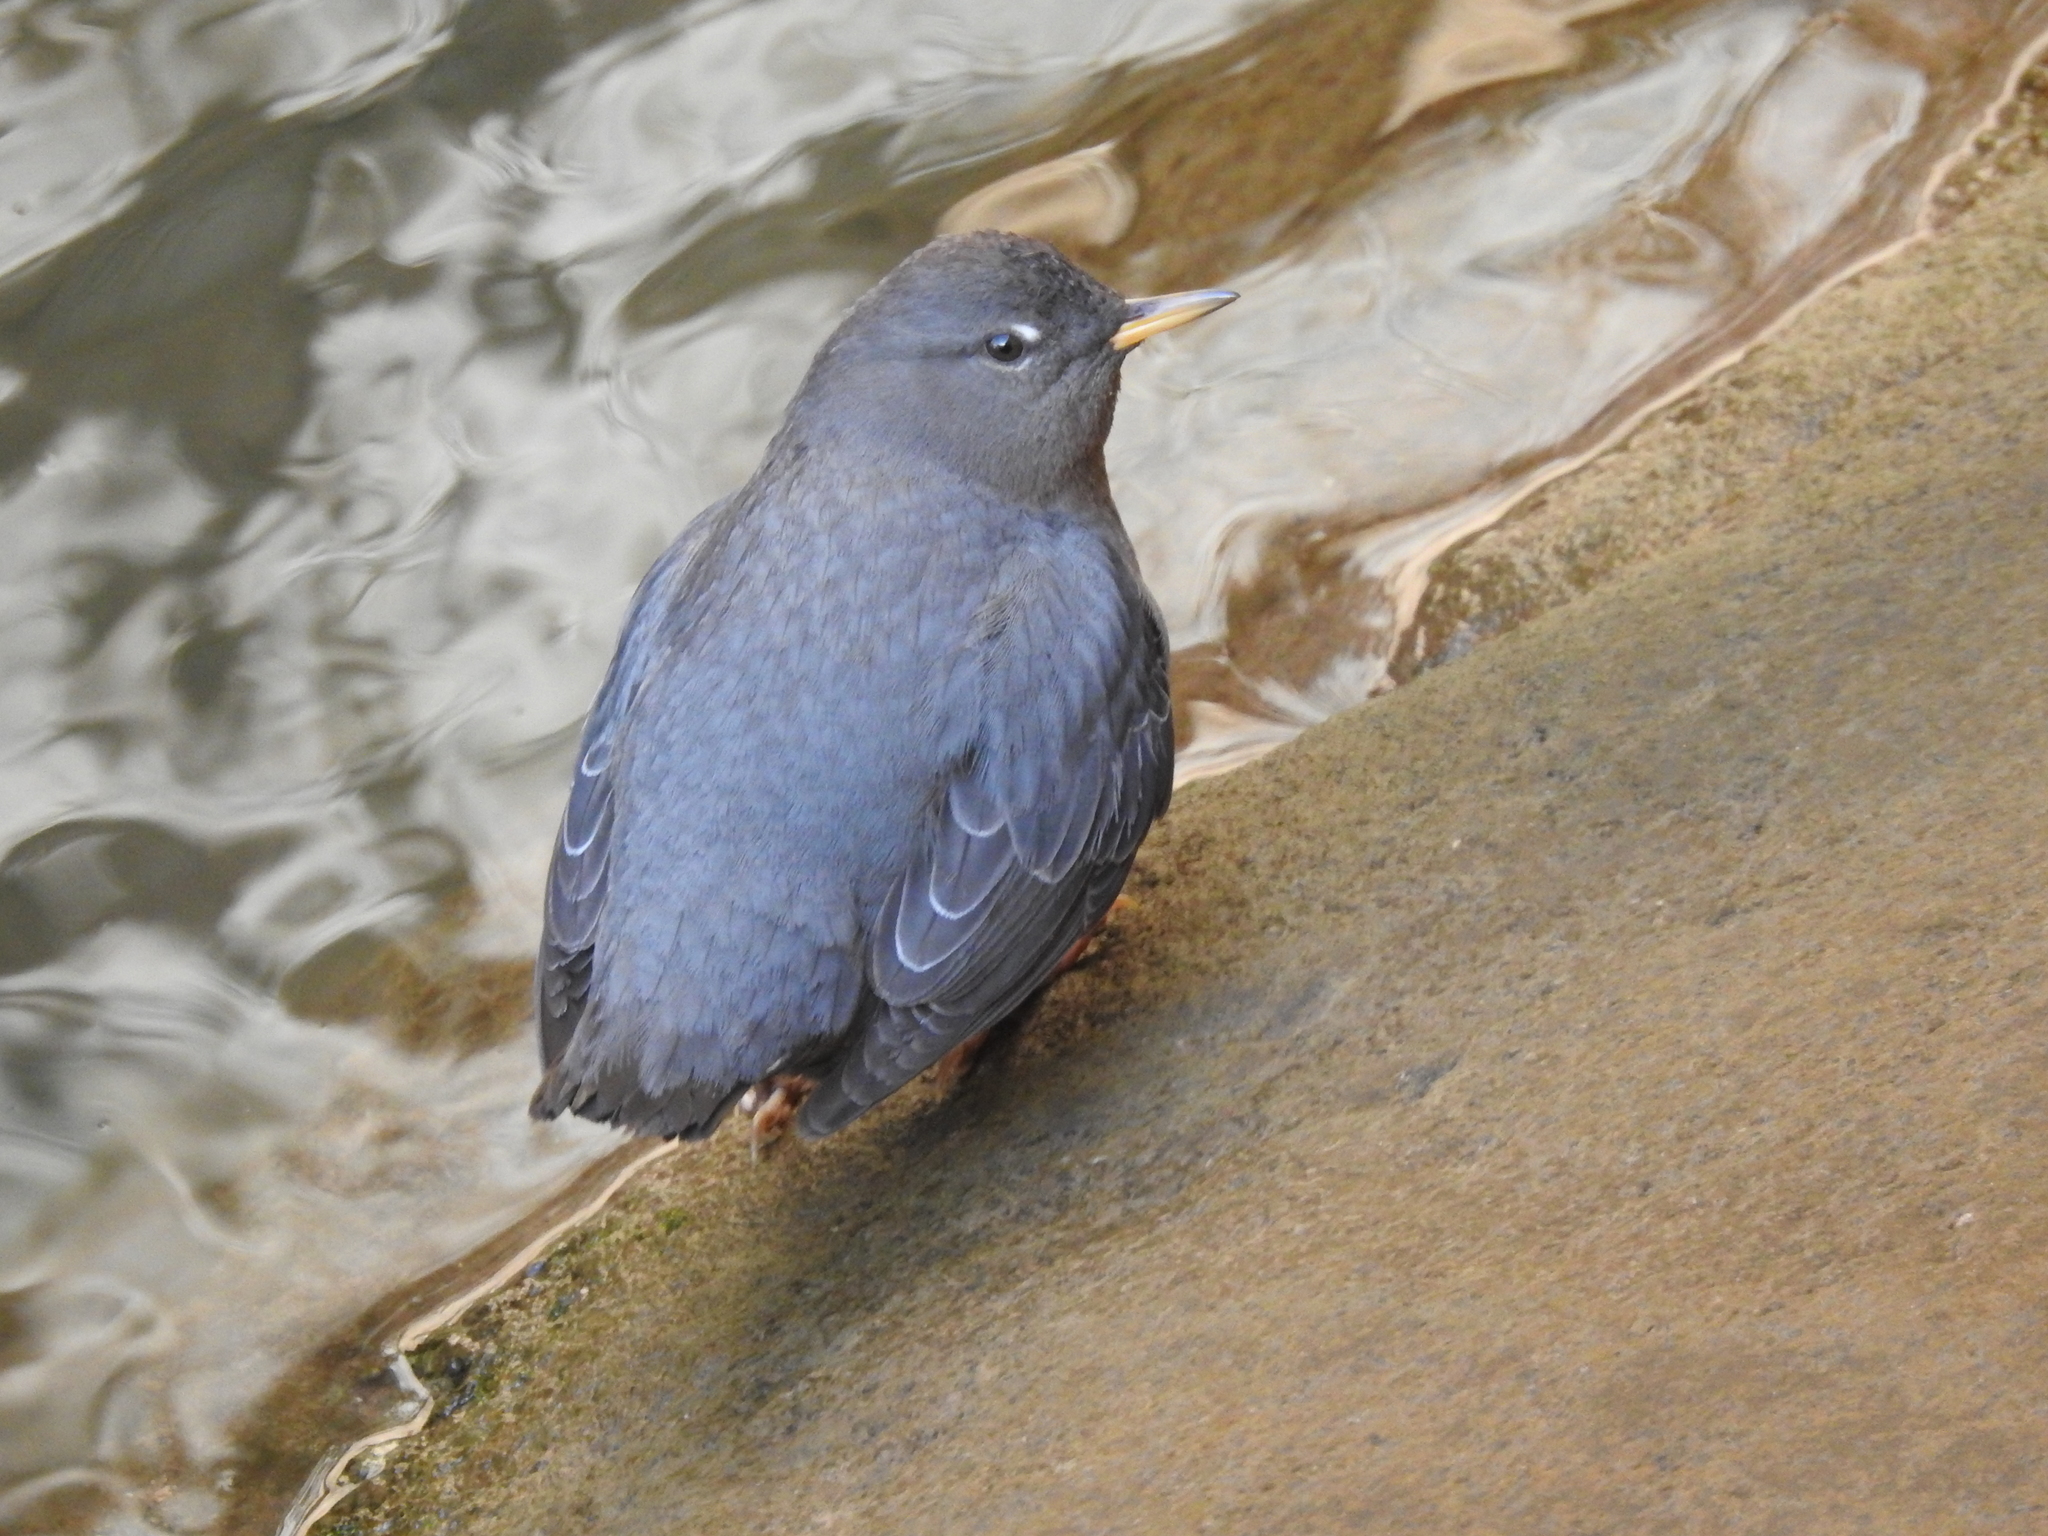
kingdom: Animalia
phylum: Chordata
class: Aves
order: Passeriformes
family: Cinclidae
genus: Cinclus
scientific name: Cinclus mexicanus
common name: American dipper
